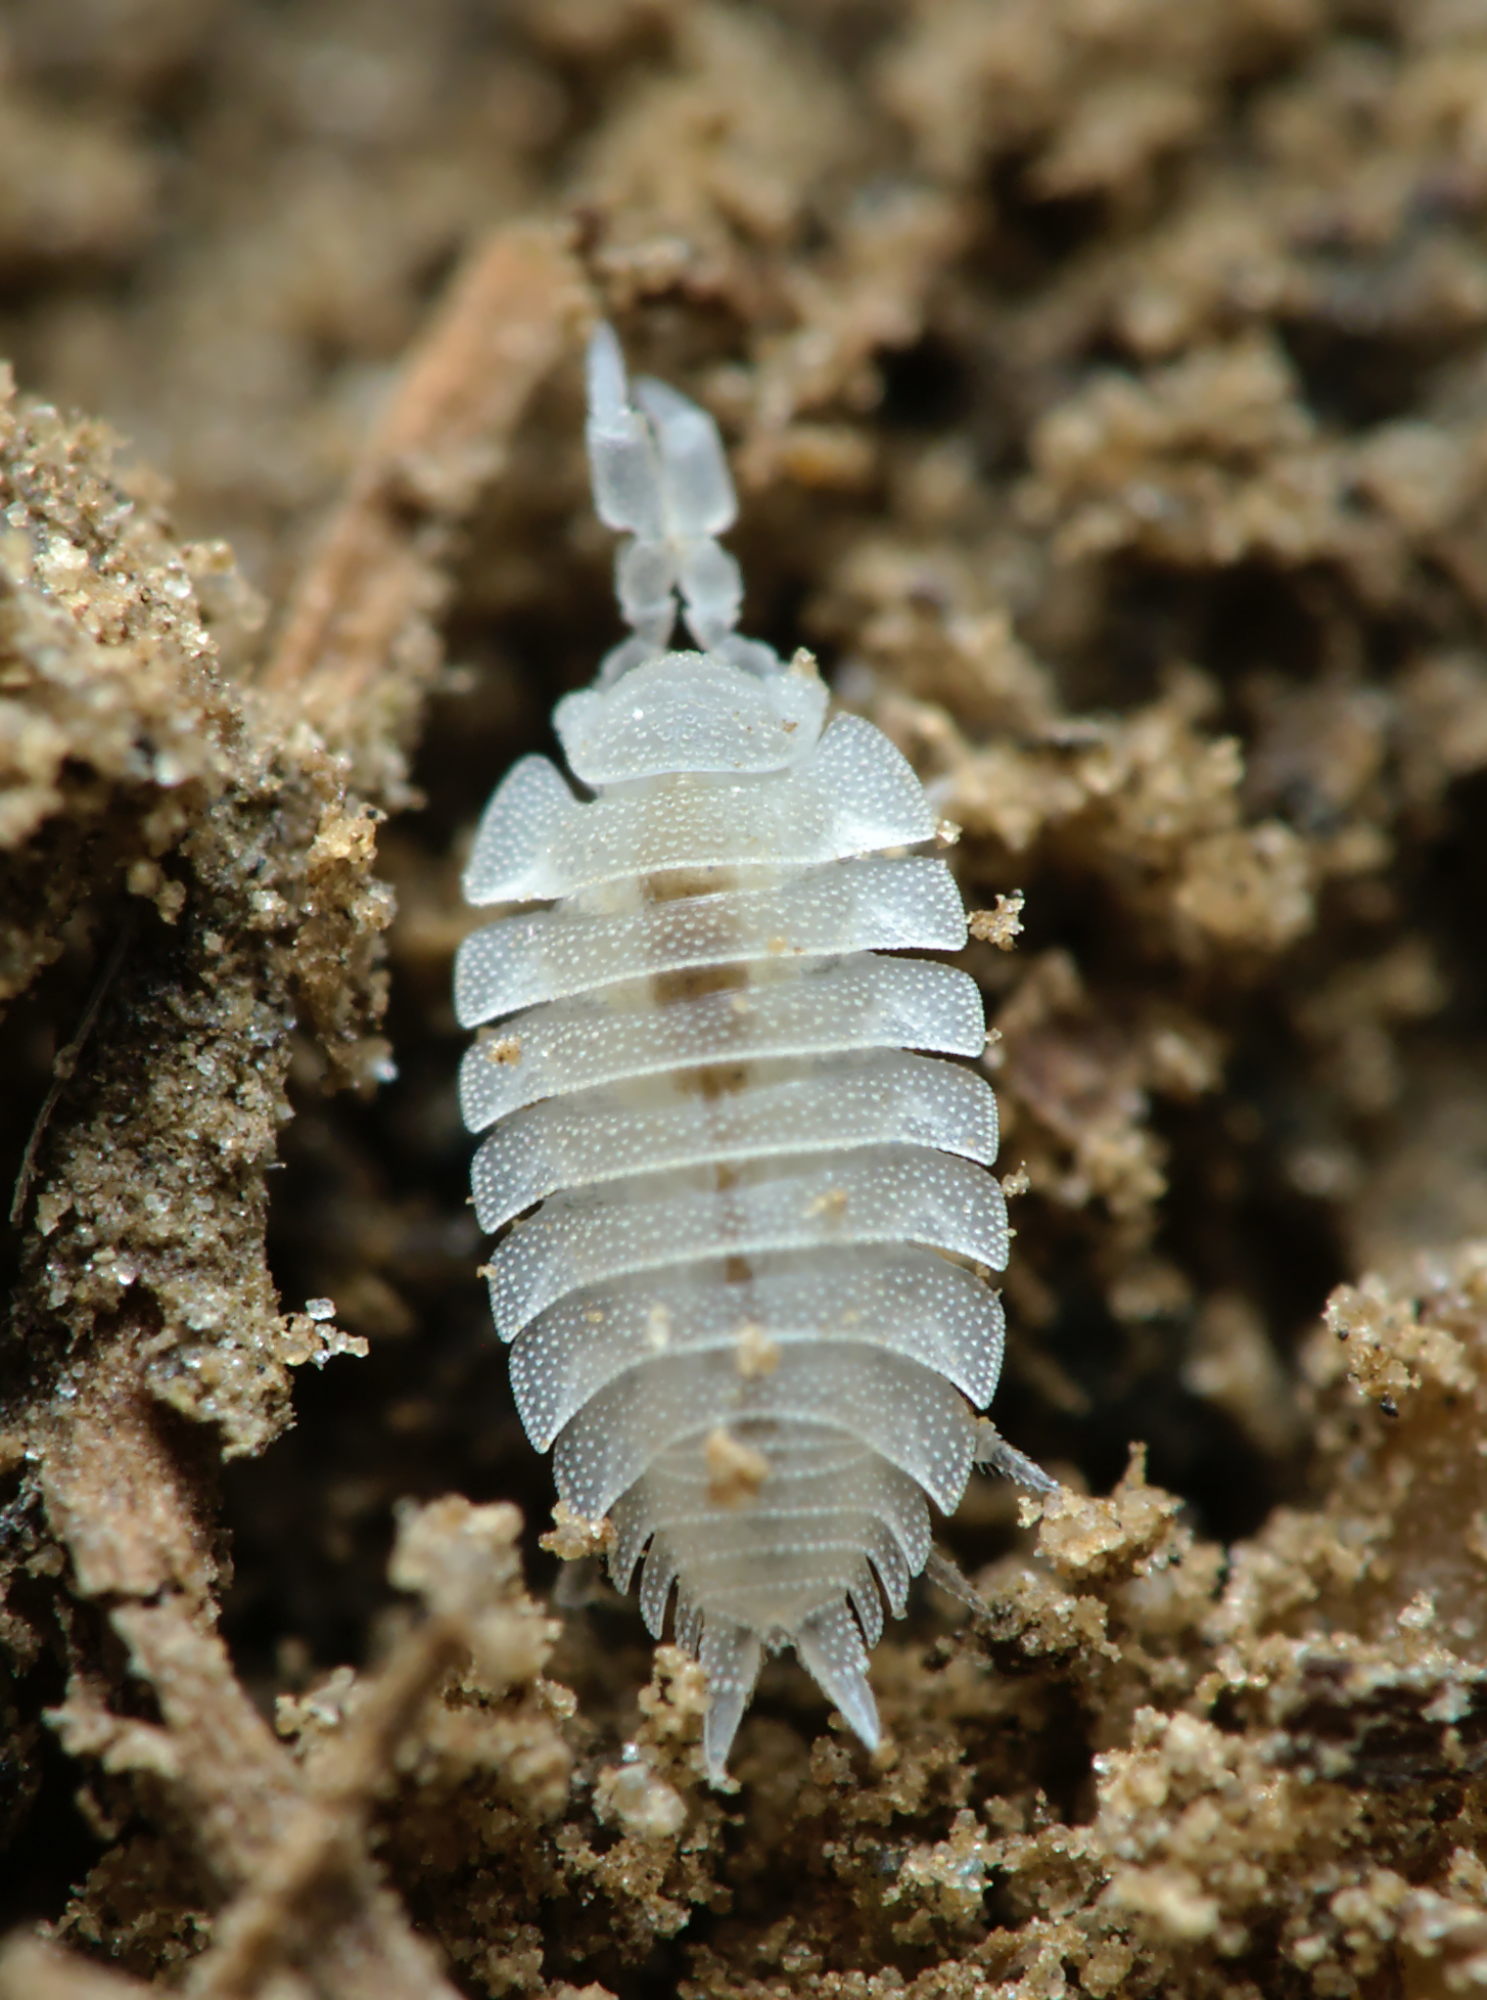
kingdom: Animalia
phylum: Arthropoda
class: Malacostraca
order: Isopoda
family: Platyarthridae
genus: Platyarthrus
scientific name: Platyarthrus hoffmannseggii
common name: Ant woodlouse
